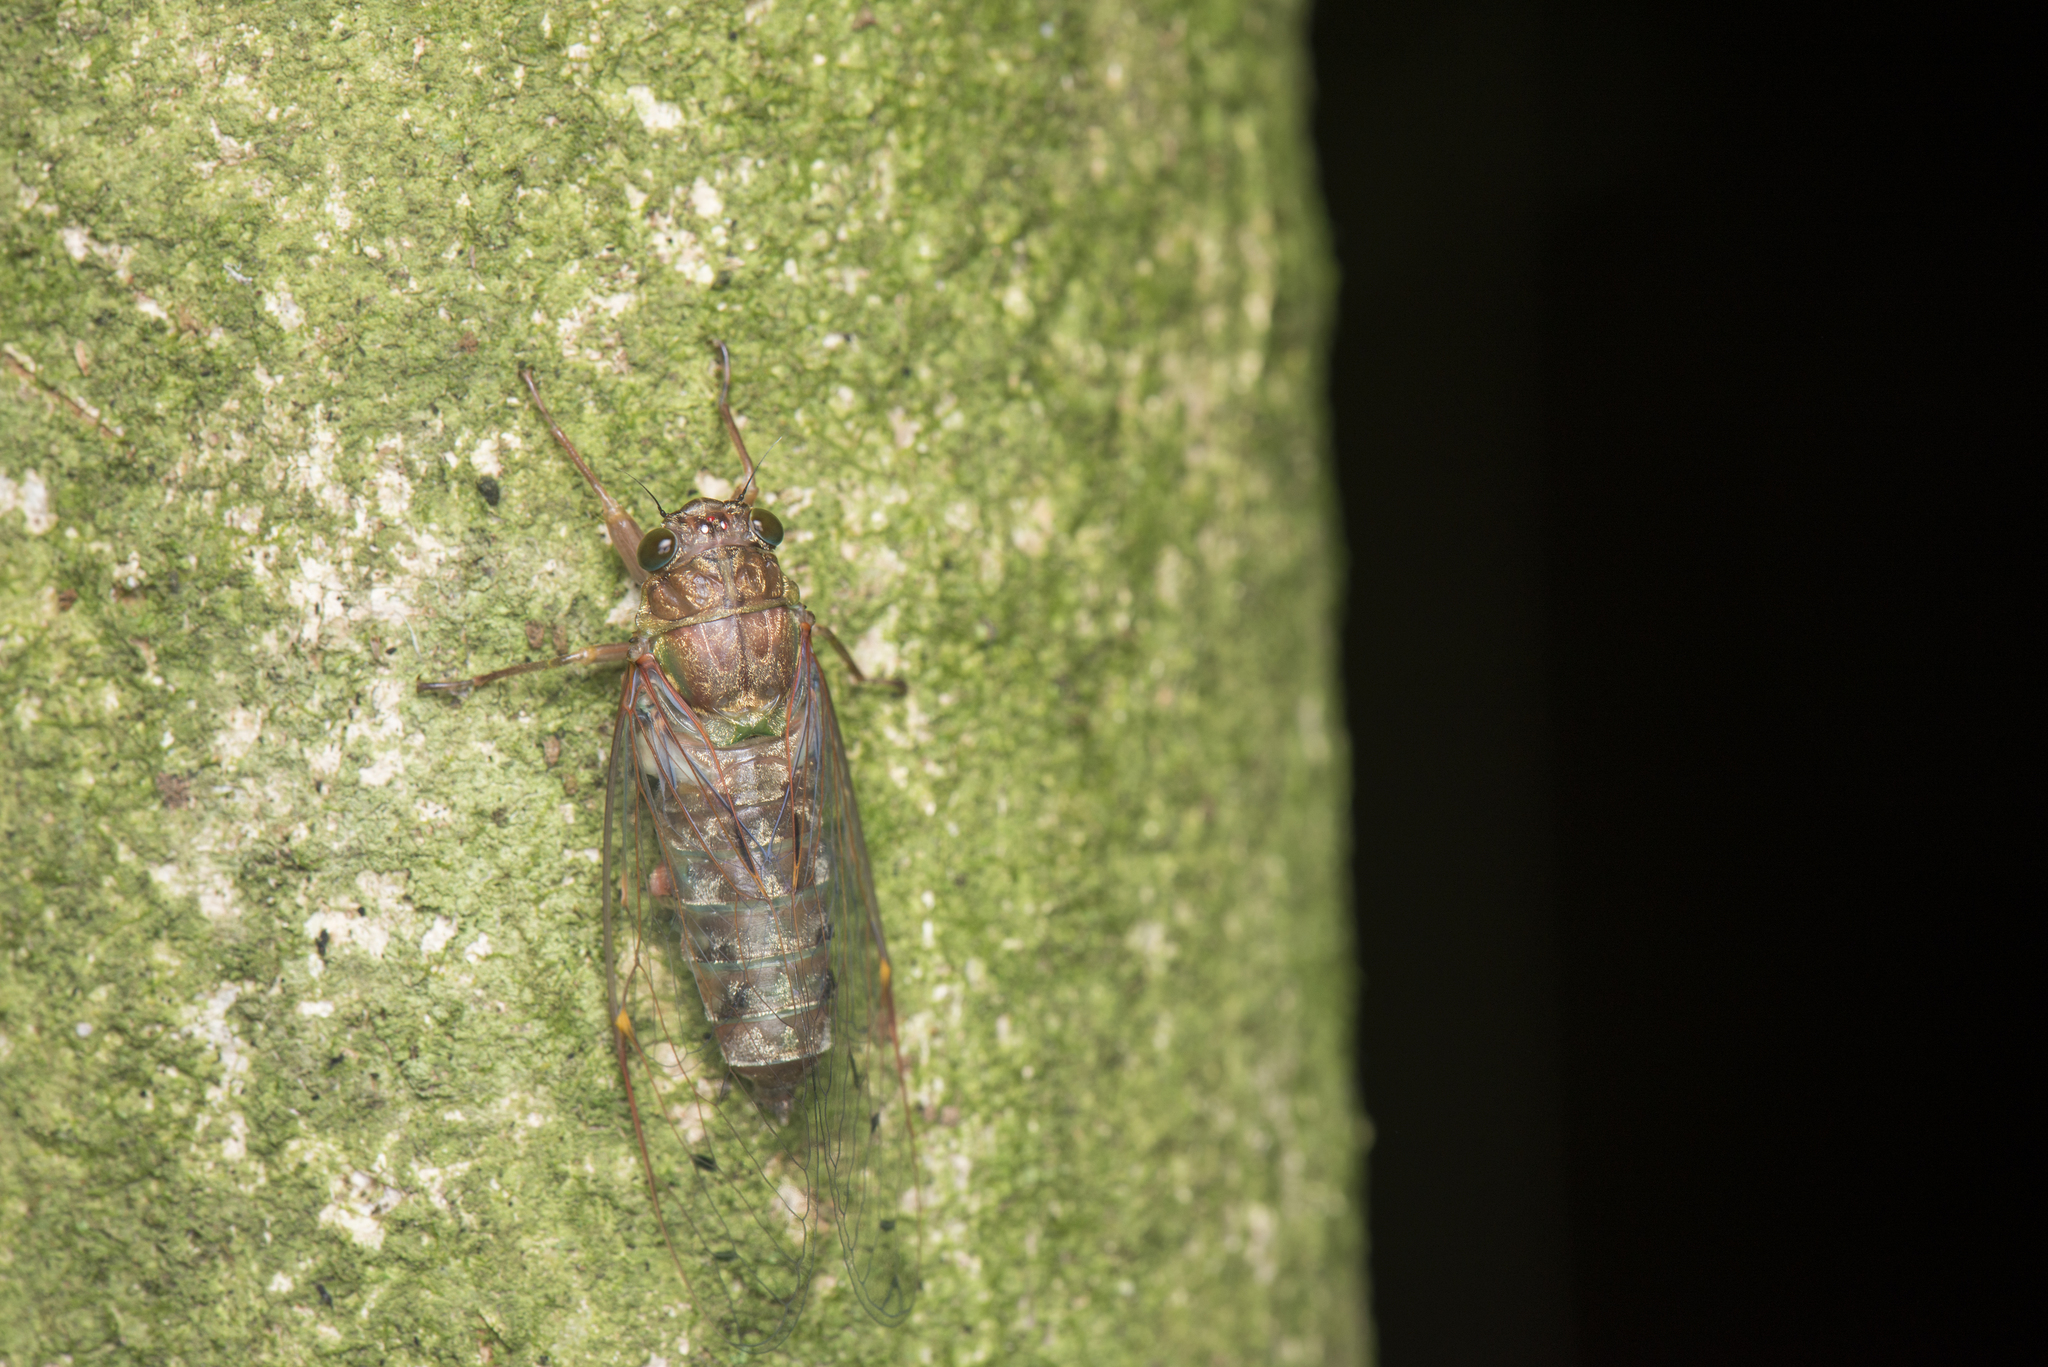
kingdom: Animalia
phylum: Arthropoda
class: Insecta
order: Hemiptera
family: Cicadidae
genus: Euterpnosia
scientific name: Euterpnosia laii
